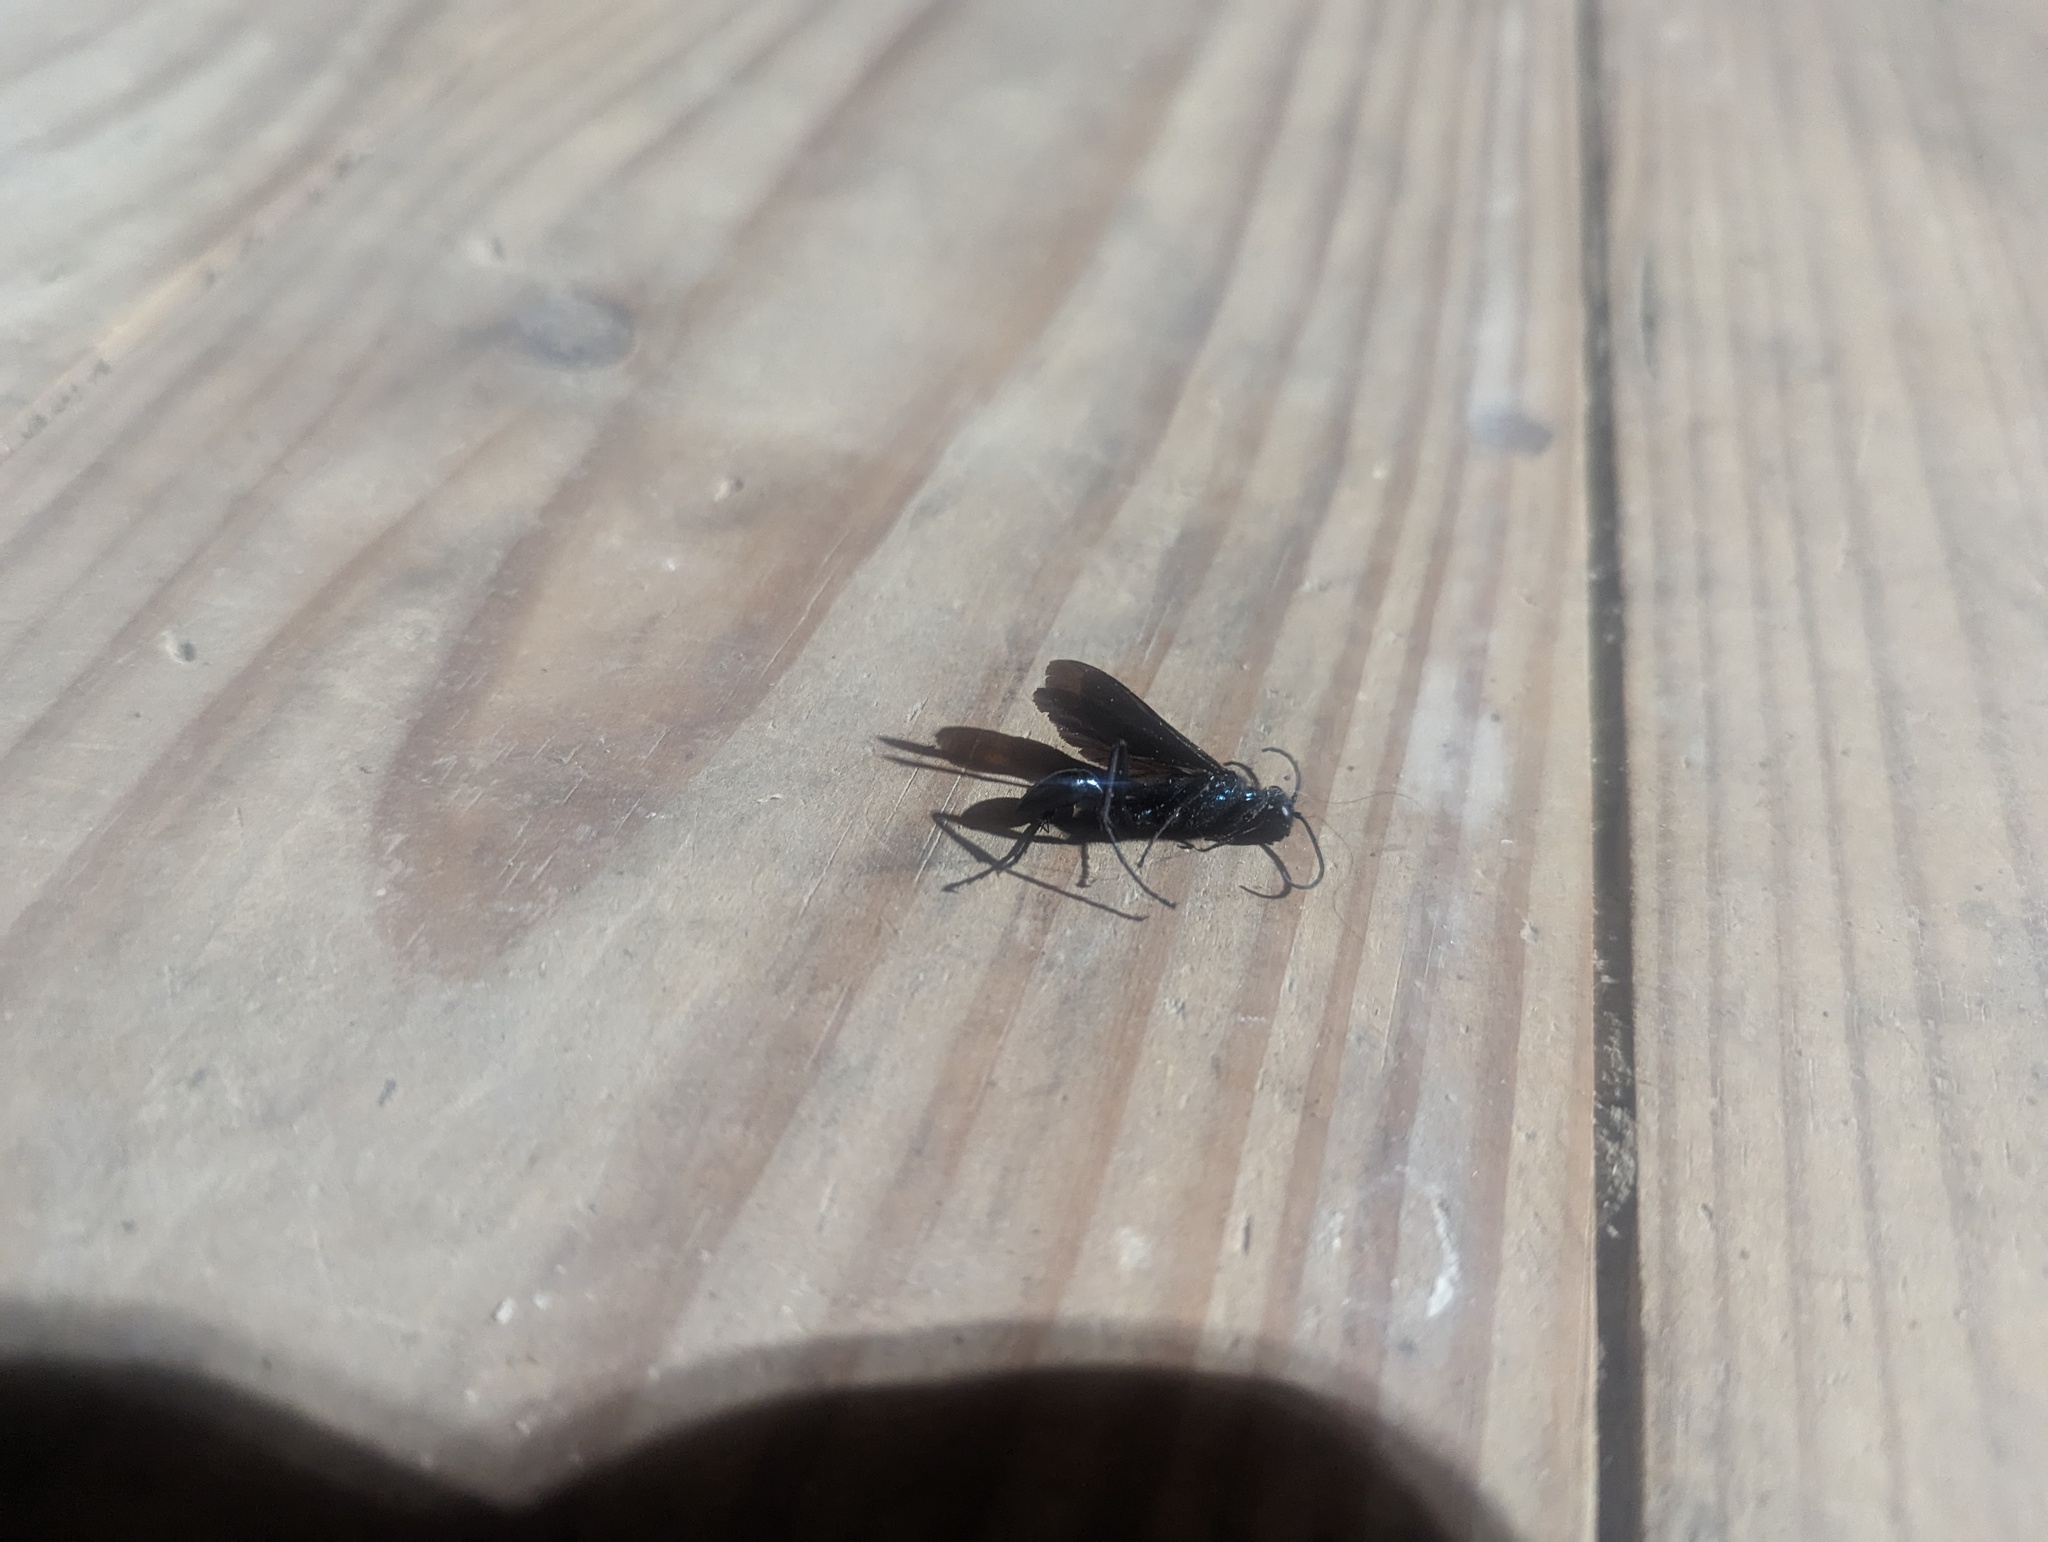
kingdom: Animalia
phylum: Arthropoda
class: Insecta
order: Hymenoptera
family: Sphecidae
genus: Chalybion
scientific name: Chalybion californicum
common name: Mud dauber
